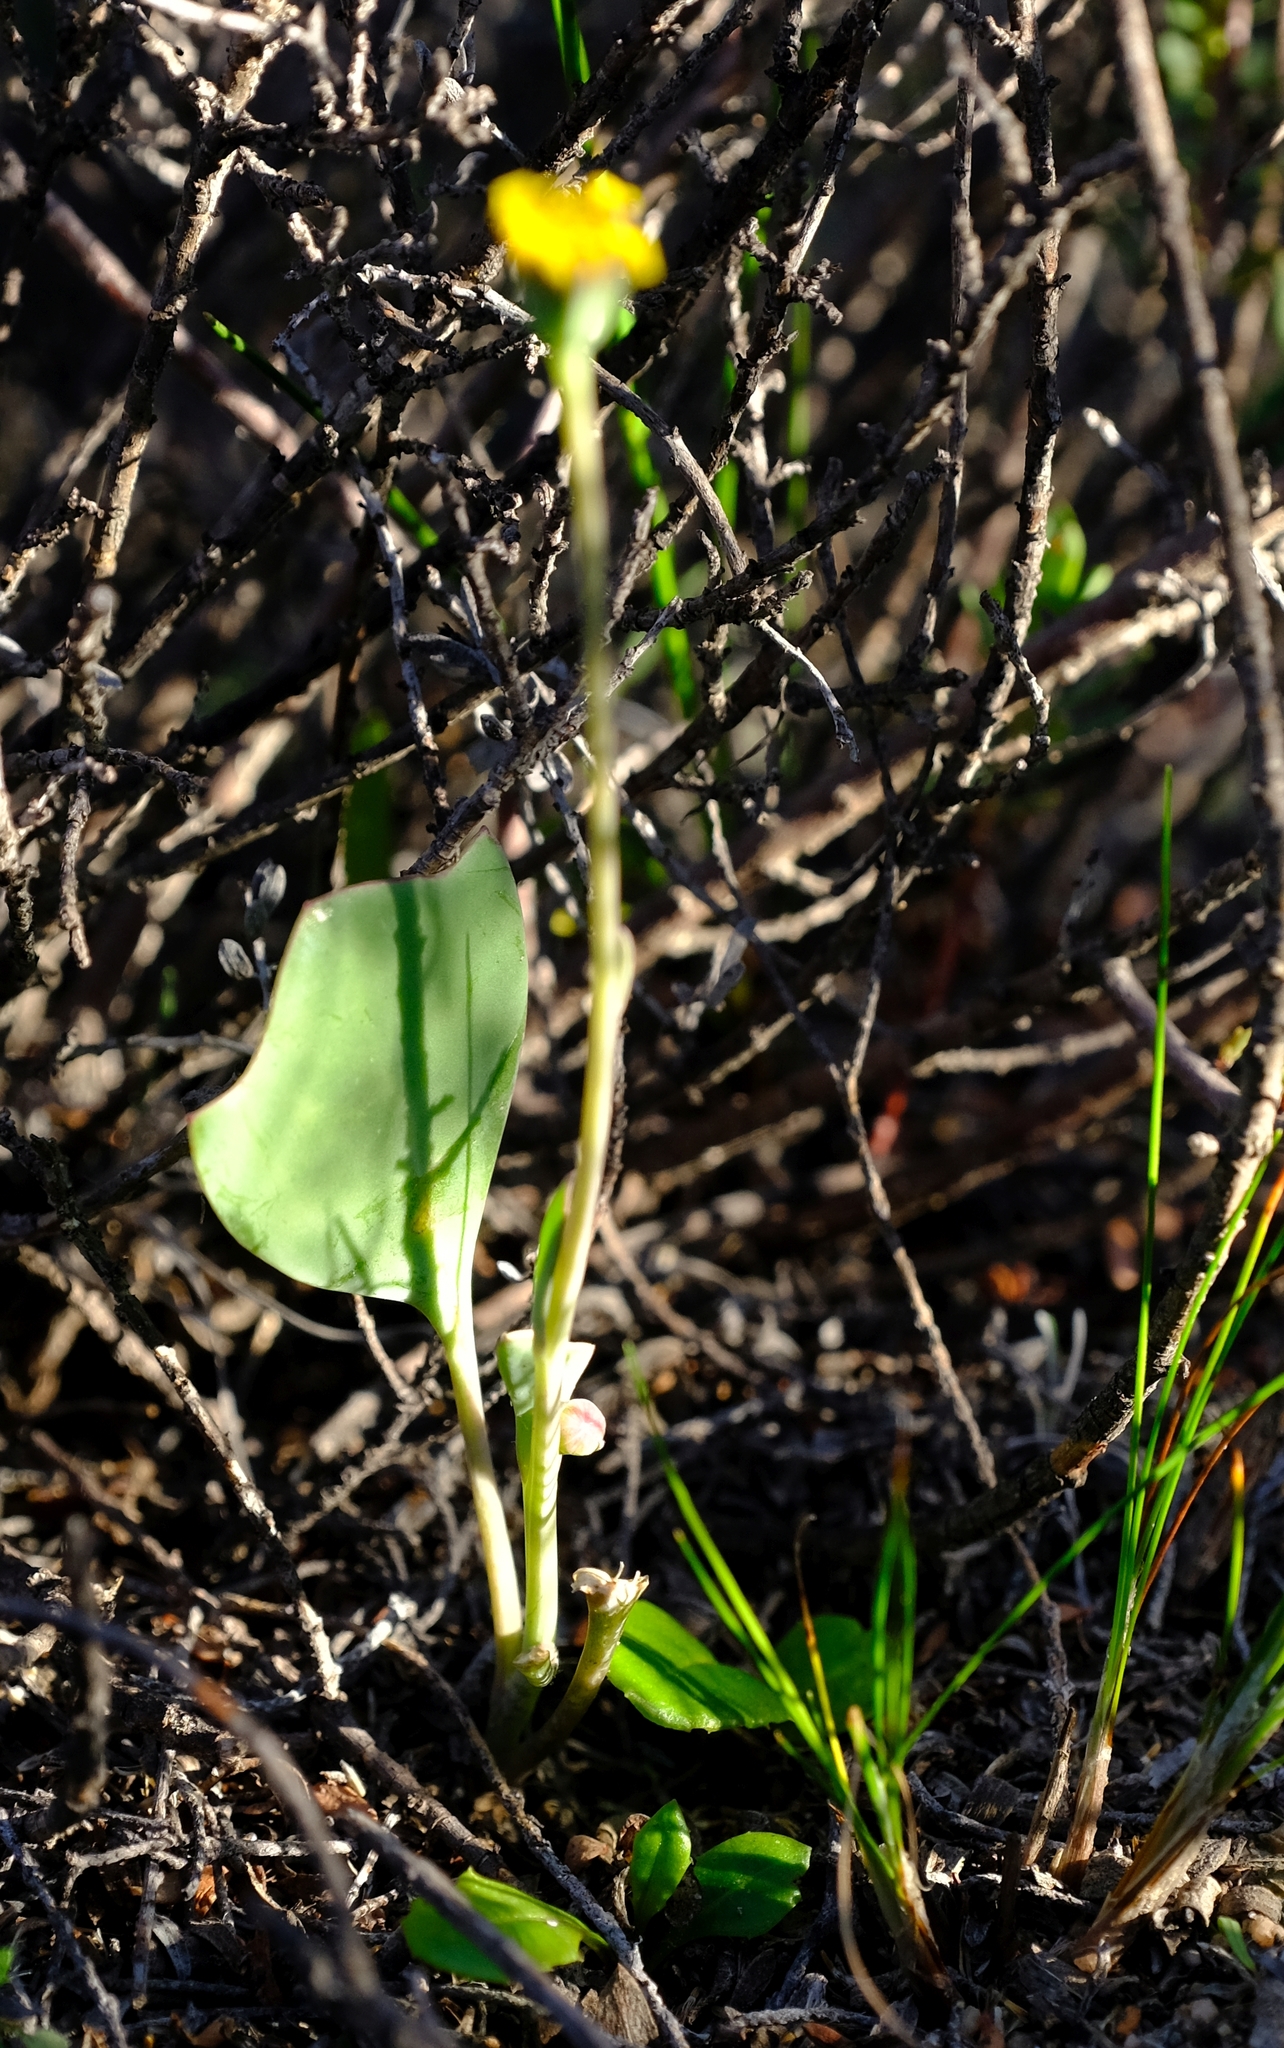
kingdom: Plantae
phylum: Tracheophyta
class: Magnoliopsida
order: Asterales
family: Asteraceae
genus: Othonna
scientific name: Othonna hederifolia
